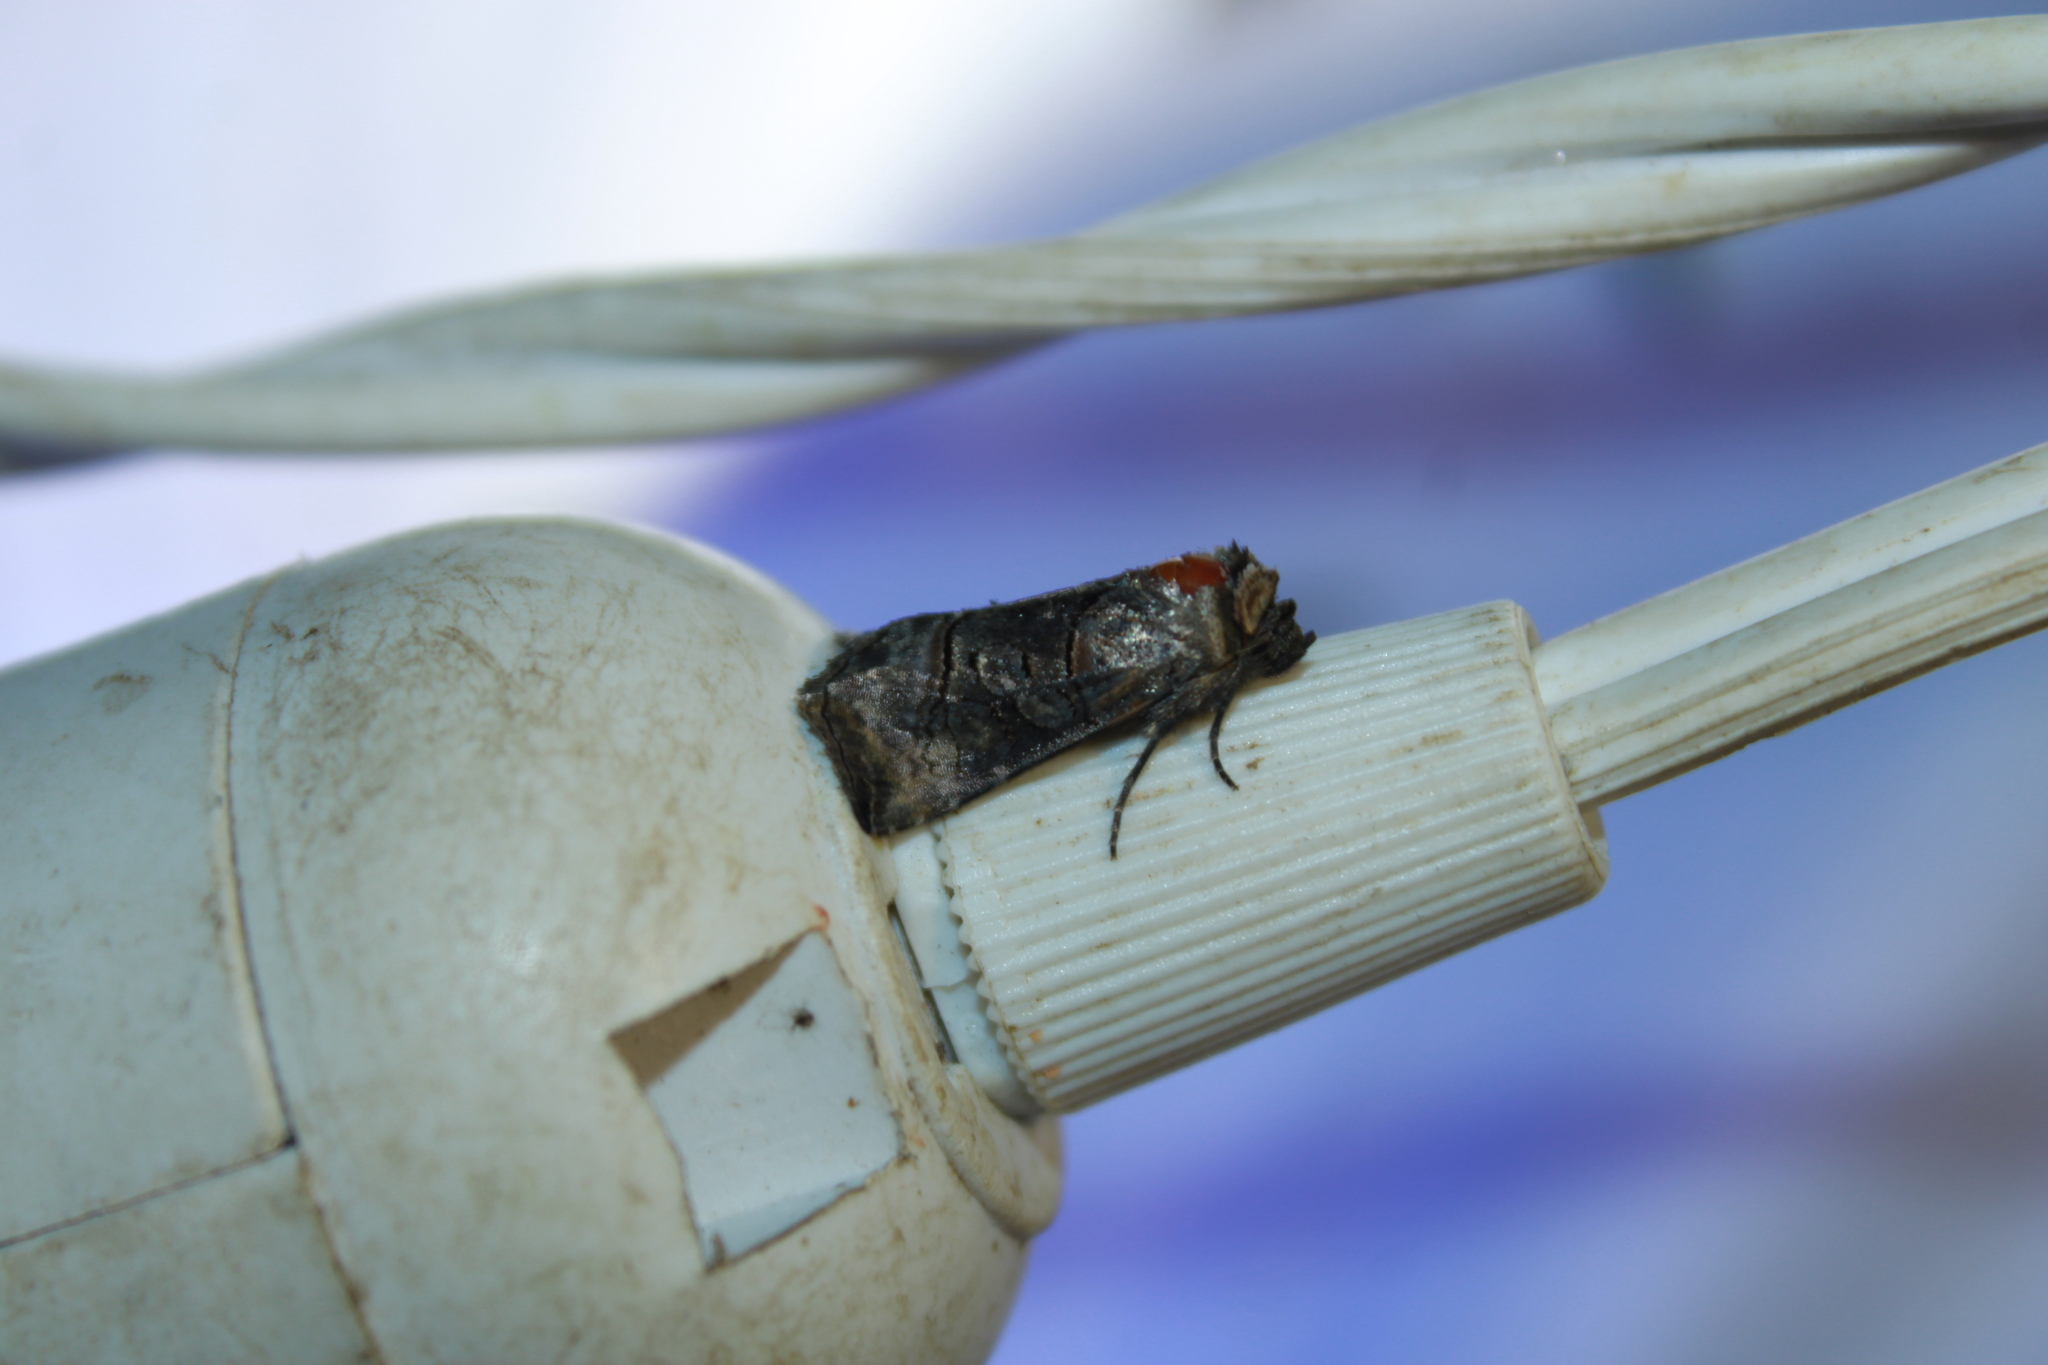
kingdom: Animalia
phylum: Arthropoda
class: Insecta
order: Lepidoptera
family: Noctuidae
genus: Abrostola
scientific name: Abrostola urentis
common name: Spectacled nettle moth
